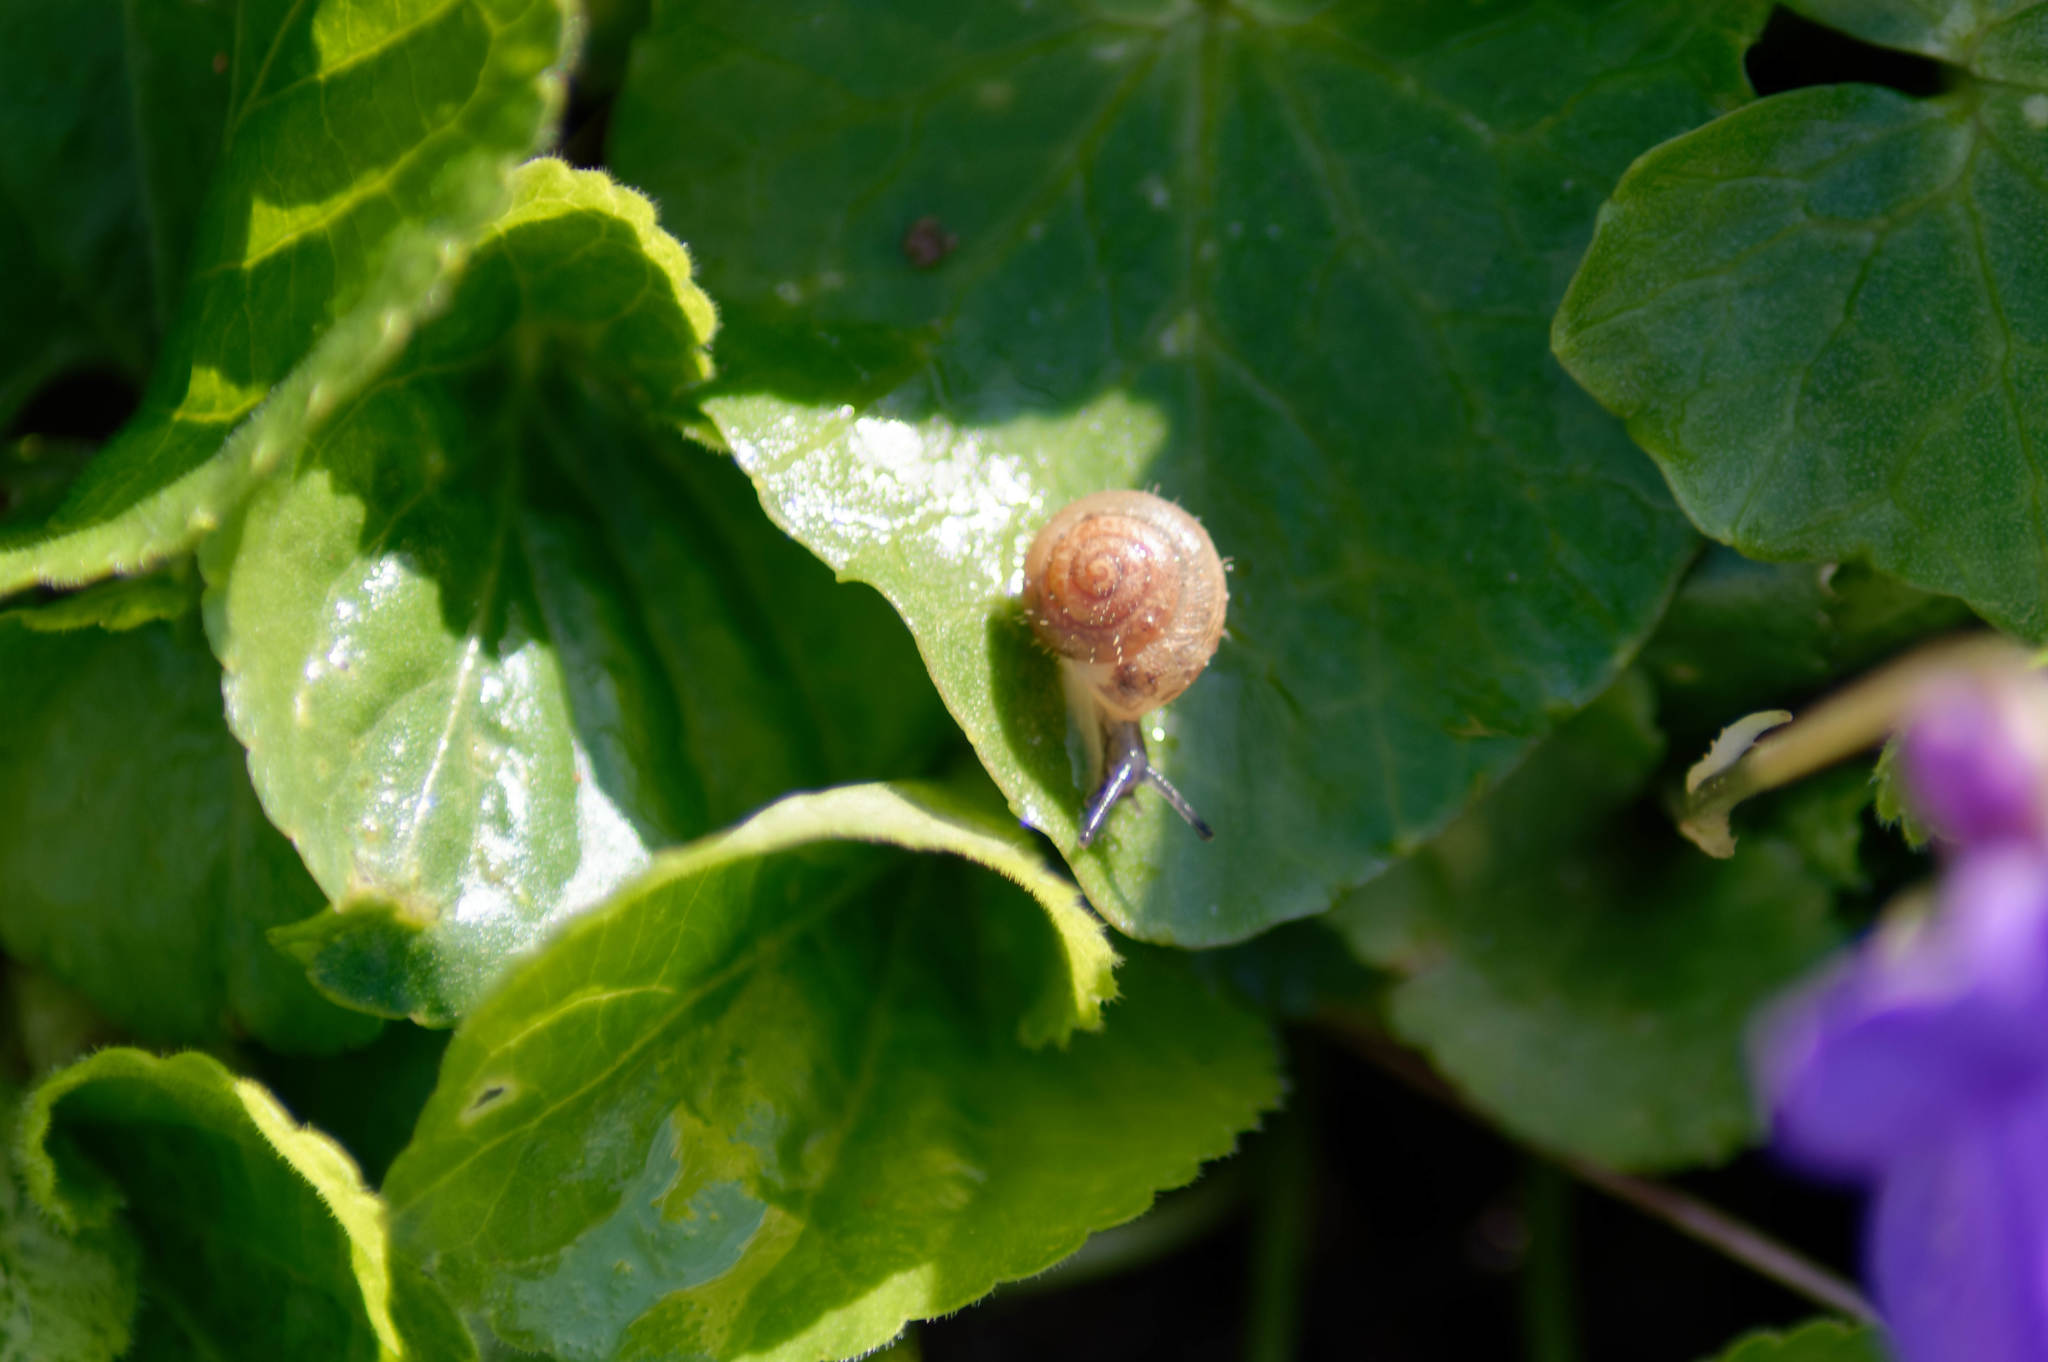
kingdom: Animalia
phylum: Mollusca
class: Gastropoda
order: Stylommatophora
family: Hygromiidae
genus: Trochulus
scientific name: Trochulus hispidus
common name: Hairy snail
